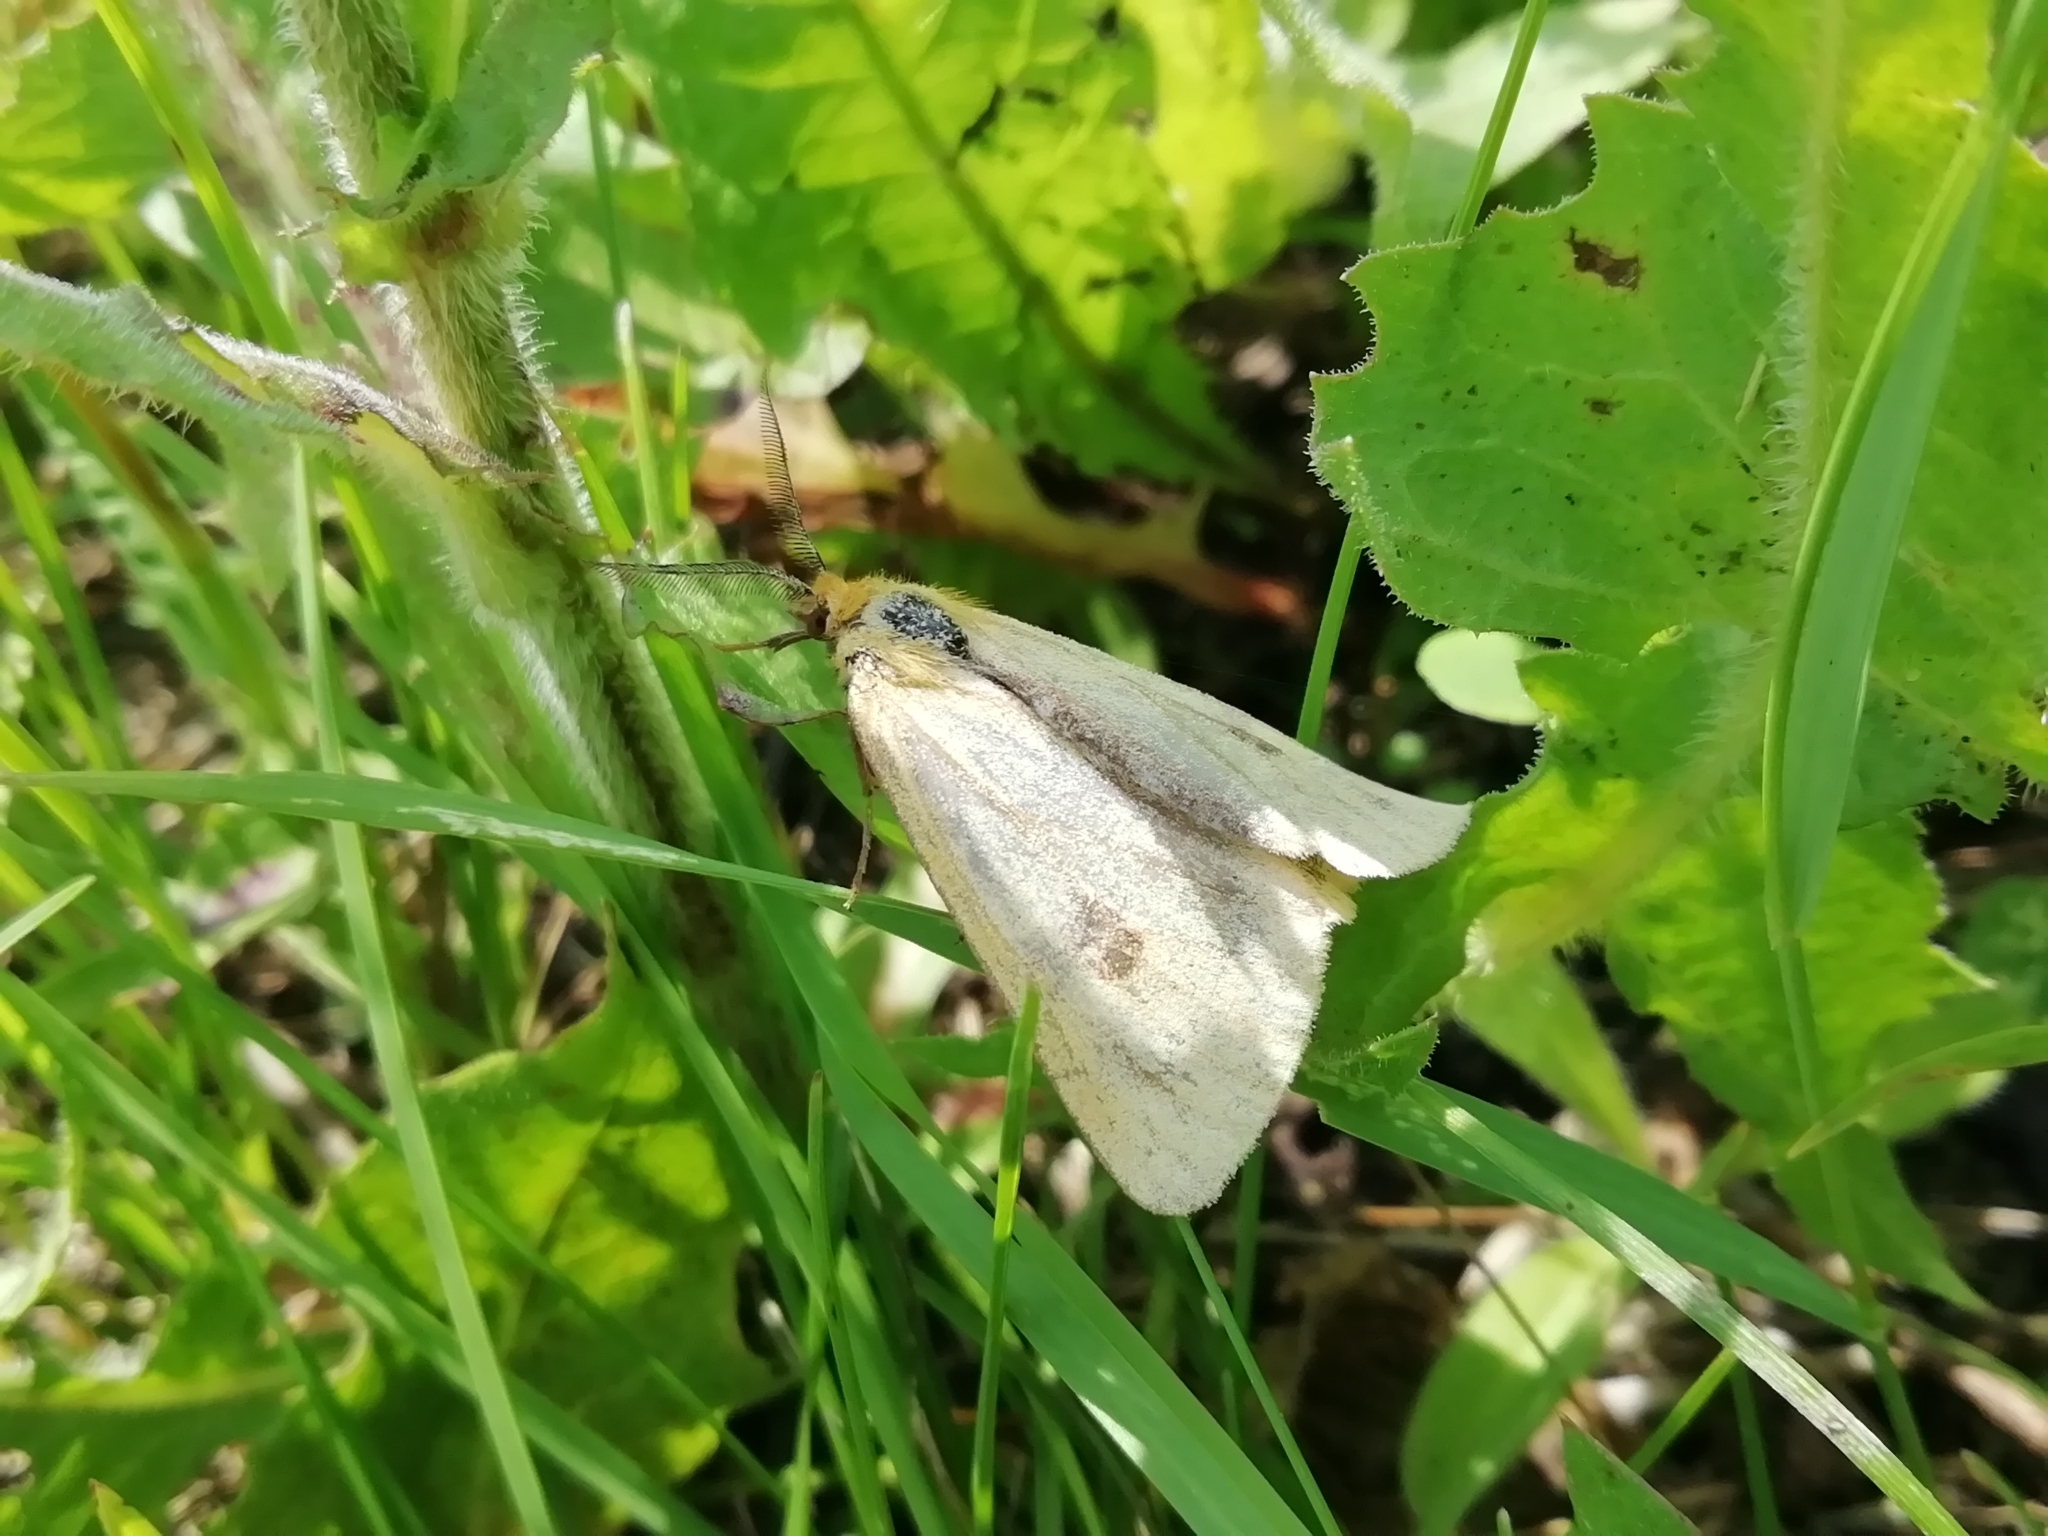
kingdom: Animalia
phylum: Arthropoda
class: Insecta
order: Lepidoptera
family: Erebidae
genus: Diacrisia
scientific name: Diacrisia sannio
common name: Clouded buff
